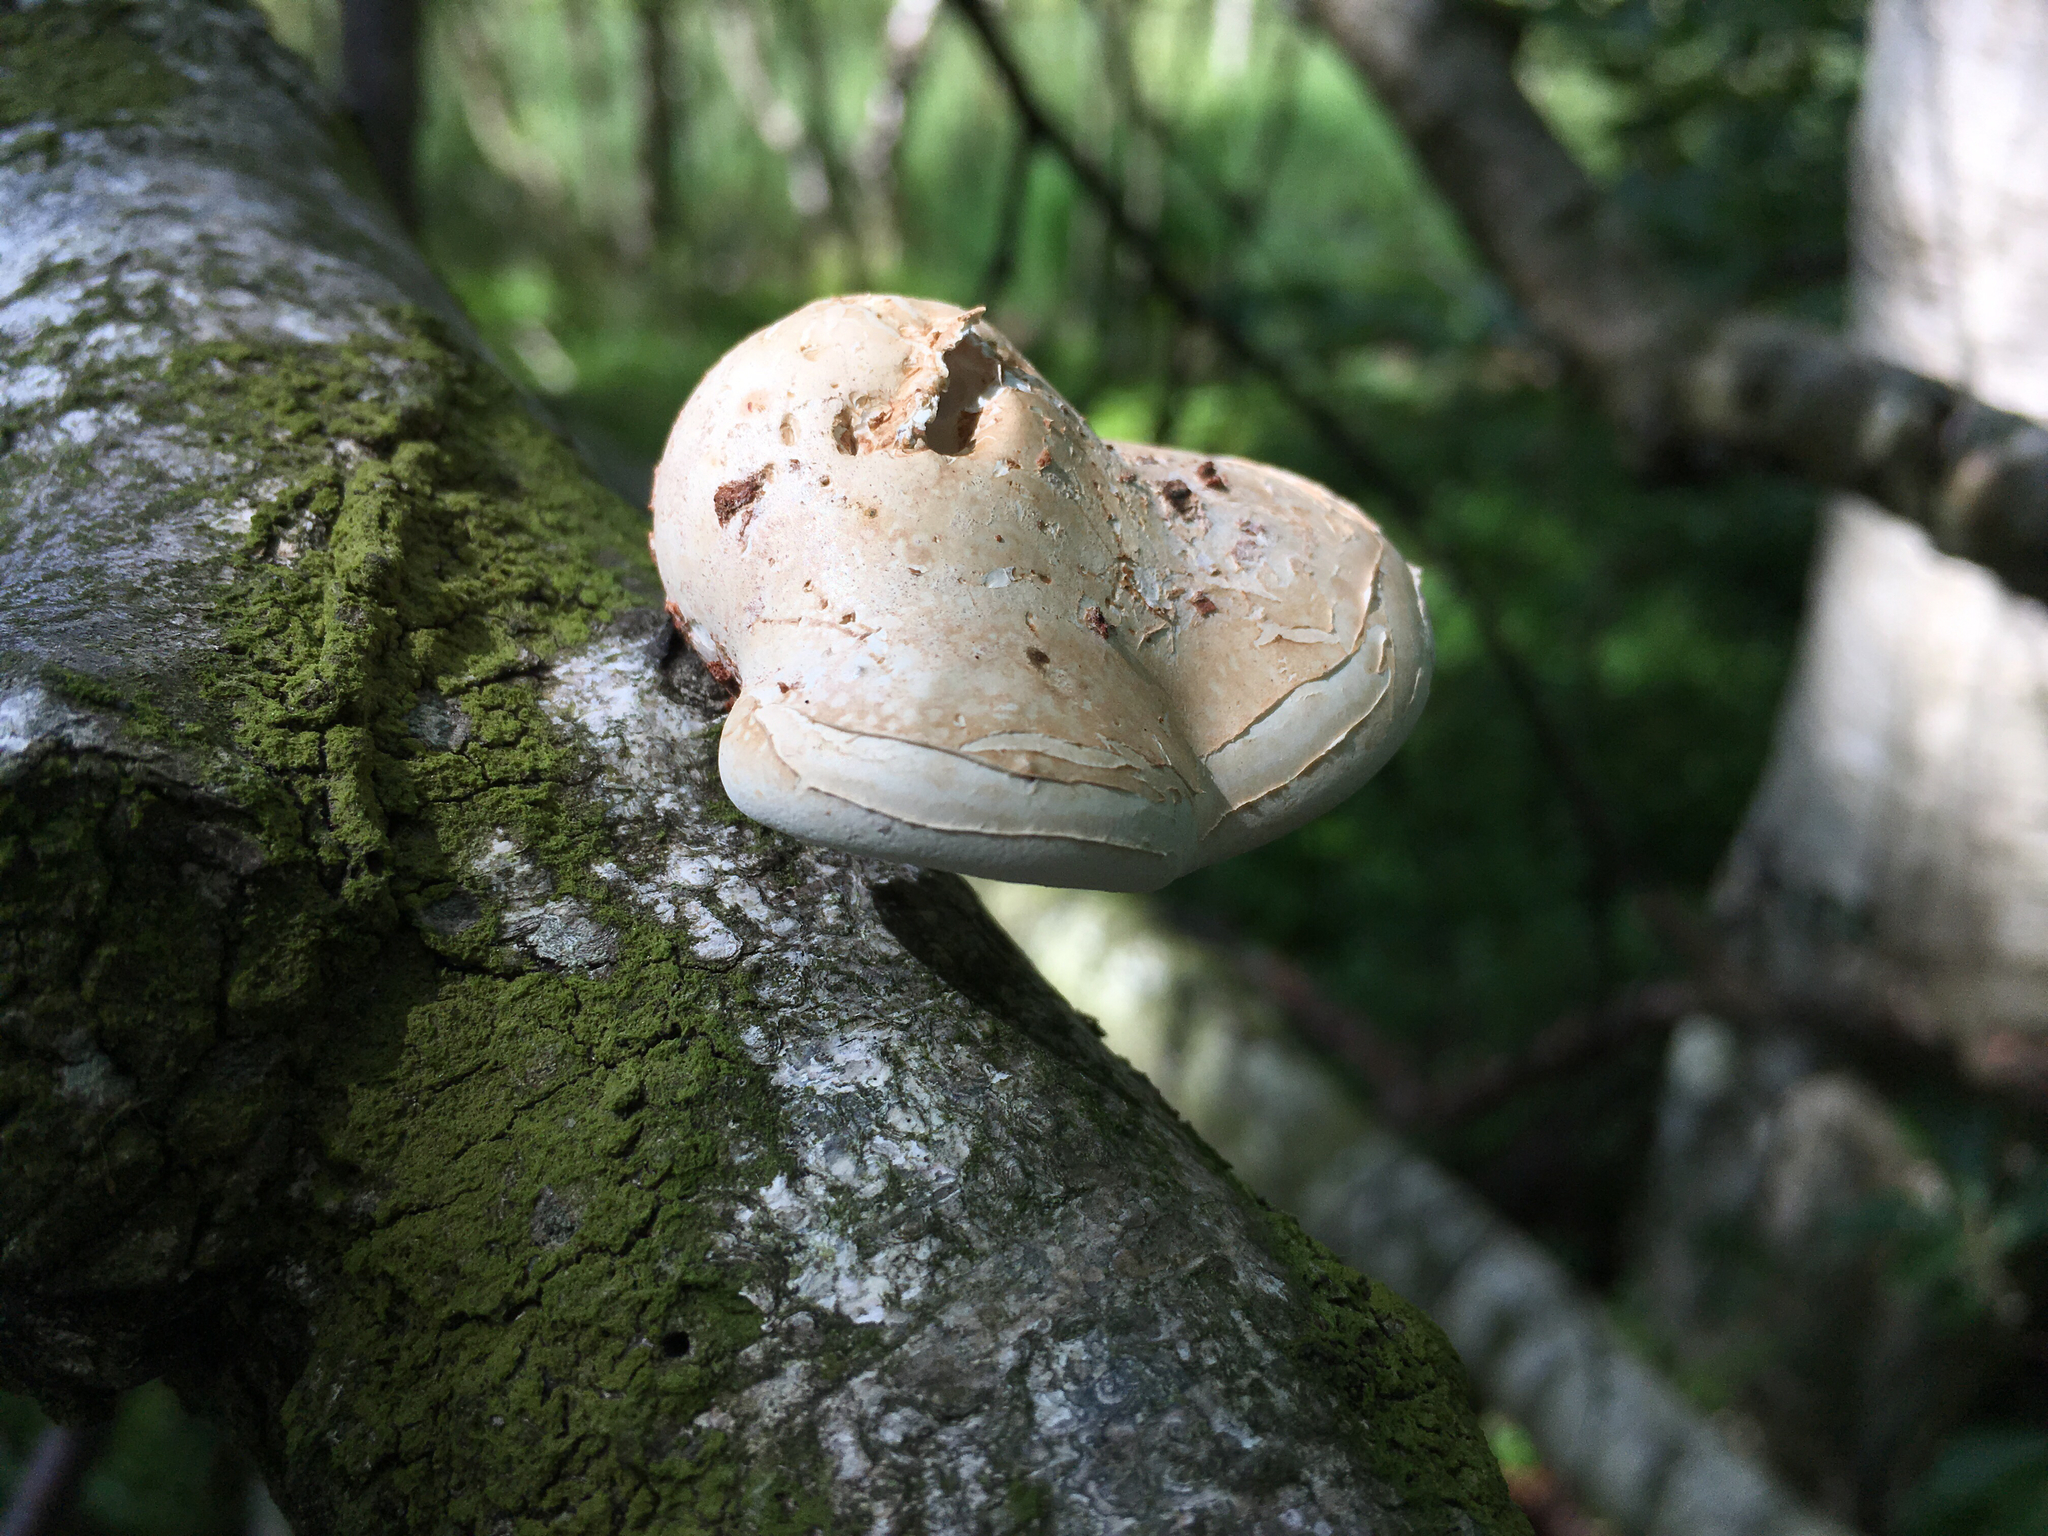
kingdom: Fungi
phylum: Basidiomycota
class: Agaricomycetes
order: Polyporales
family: Fomitopsidaceae
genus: Fomitopsis
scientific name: Fomitopsis betulina
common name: Birch polypore
